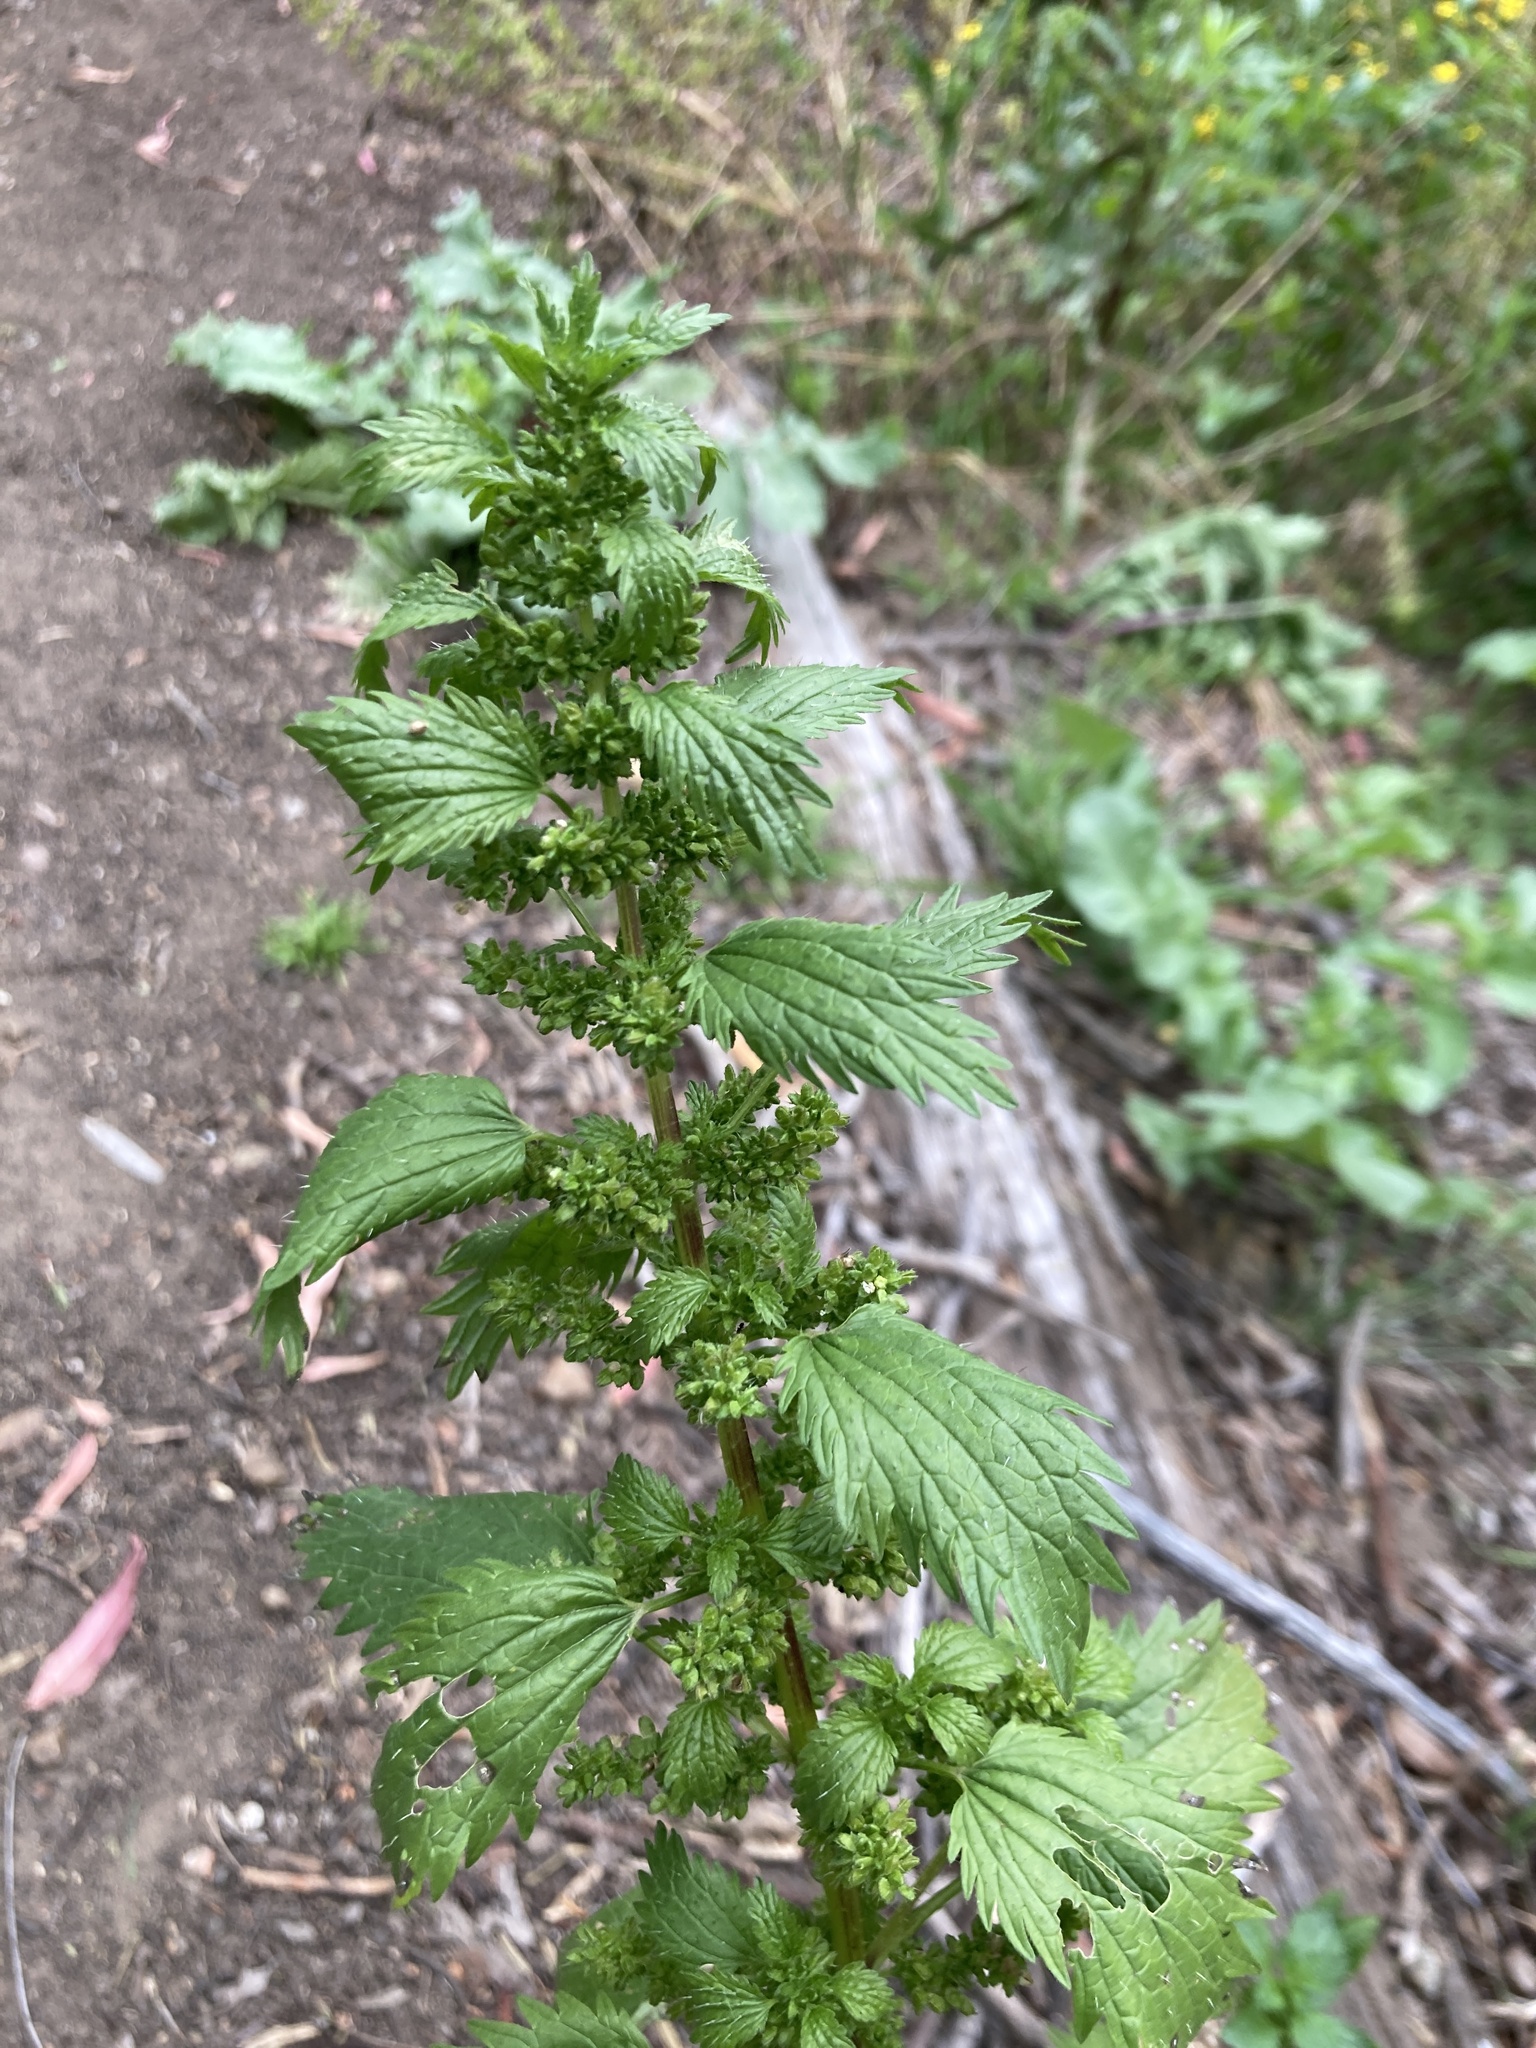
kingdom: Plantae
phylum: Tracheophyta
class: Magnoliopsida
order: Rosales
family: Urticaceae
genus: Urtica
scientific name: Urtica urens
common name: Dwarf nettle
